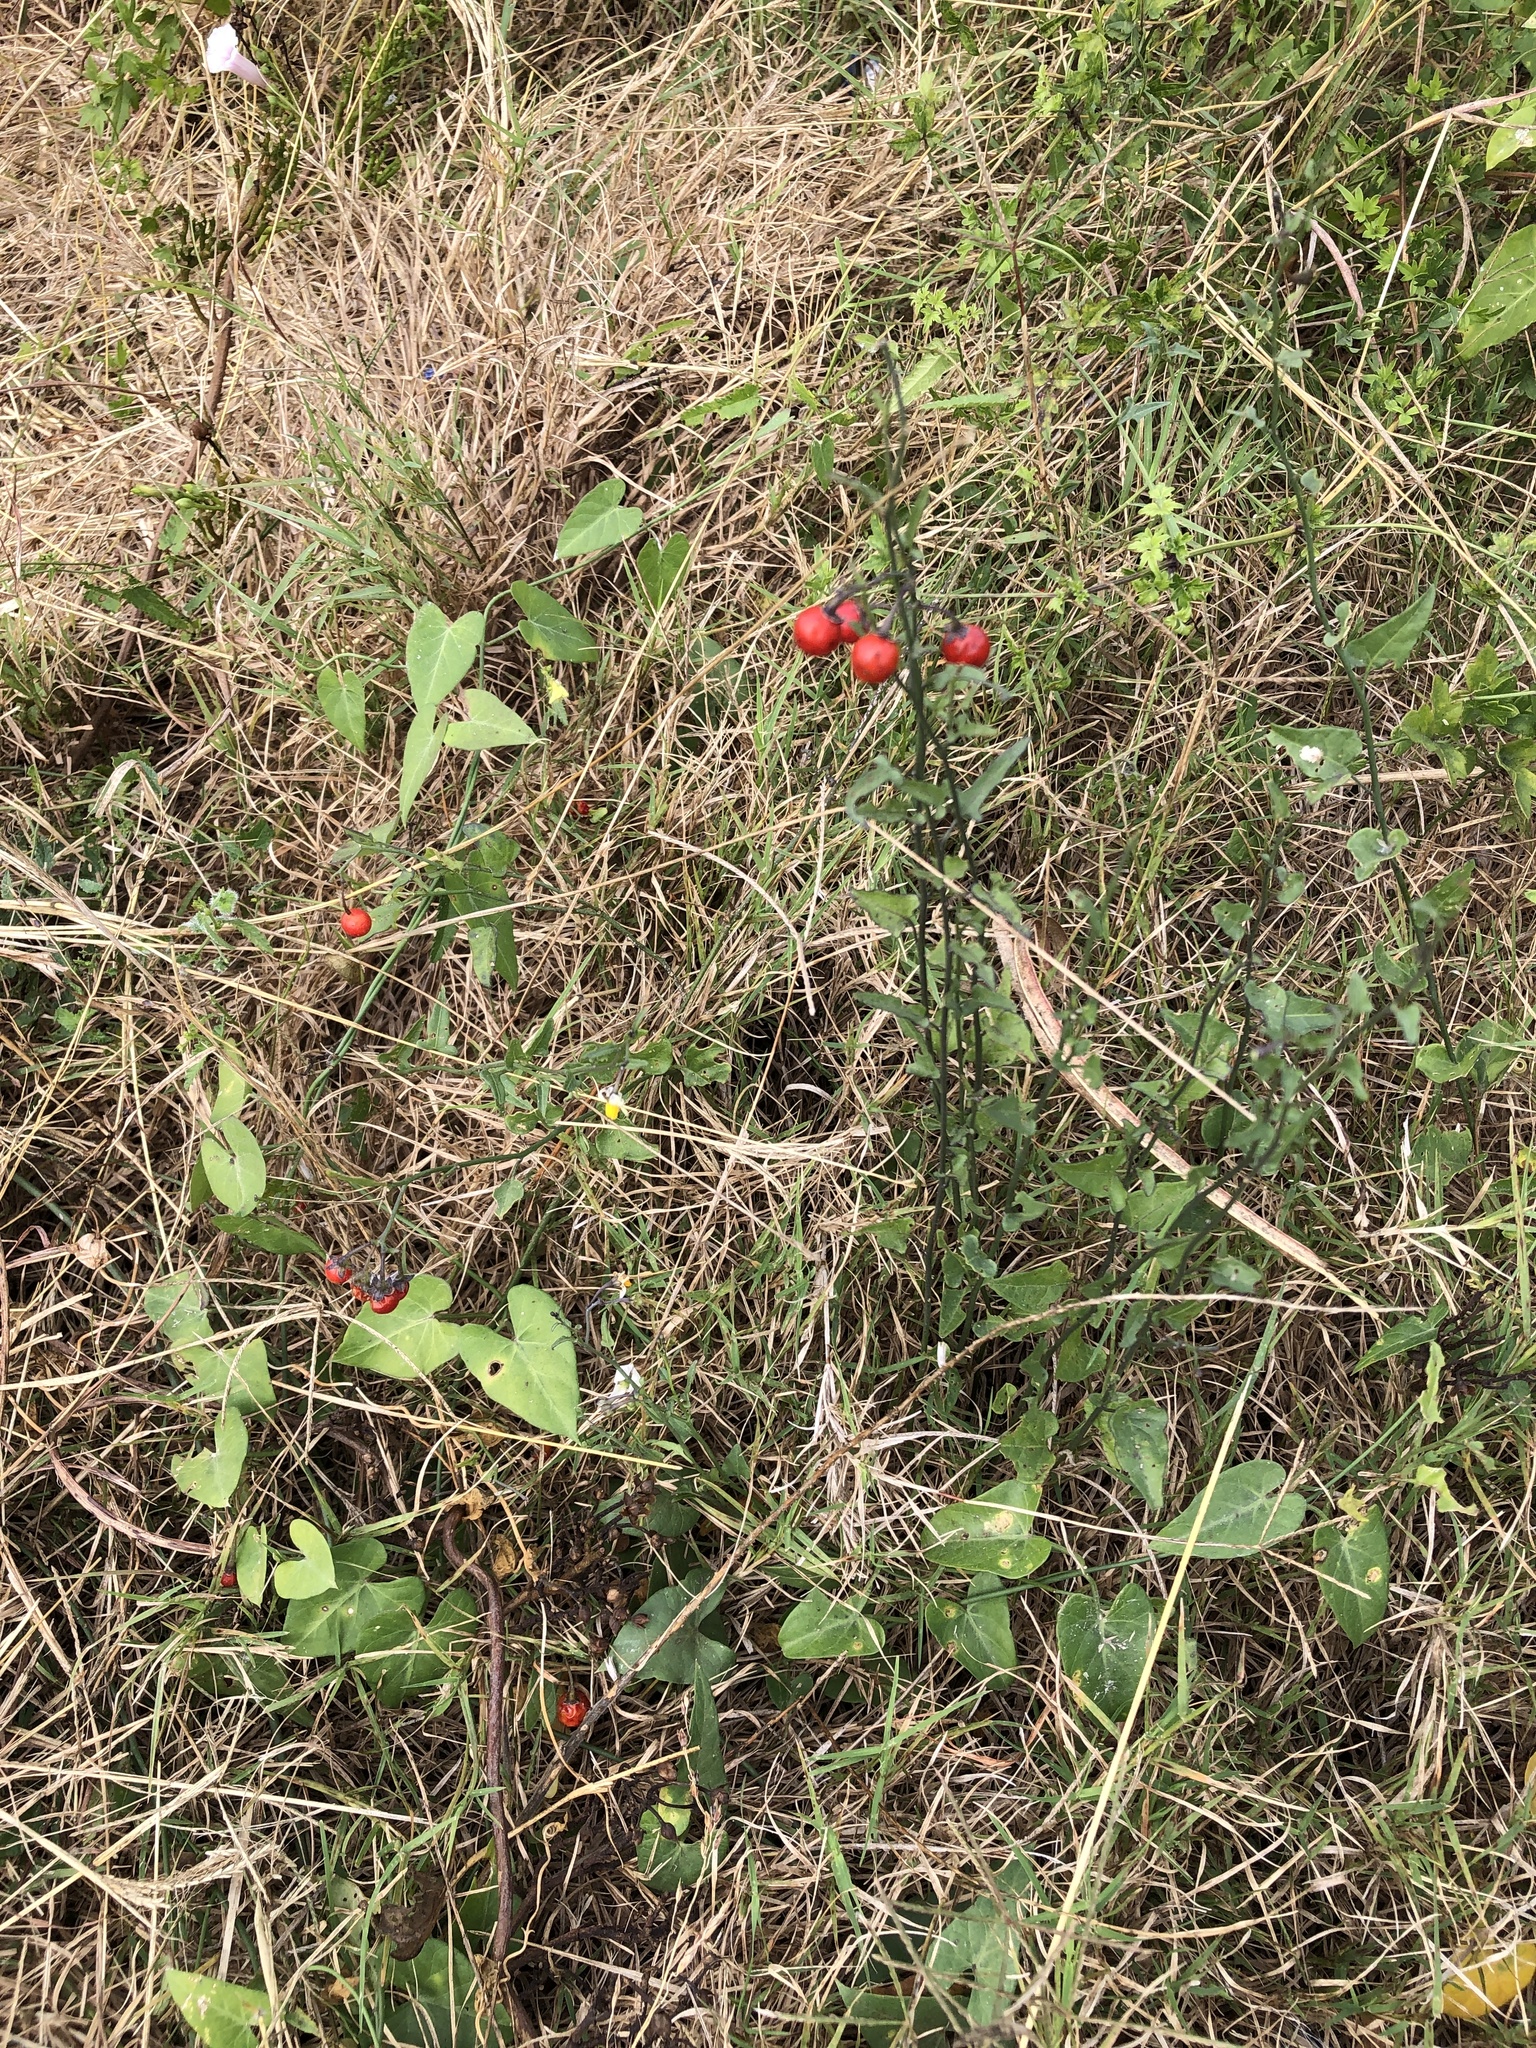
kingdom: Plantae
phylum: Tracheophyta
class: Magnoliopsida
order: Solanales
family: Solanaceae
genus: Solanum
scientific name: Solanum triquetrum
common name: Texas nightshade
